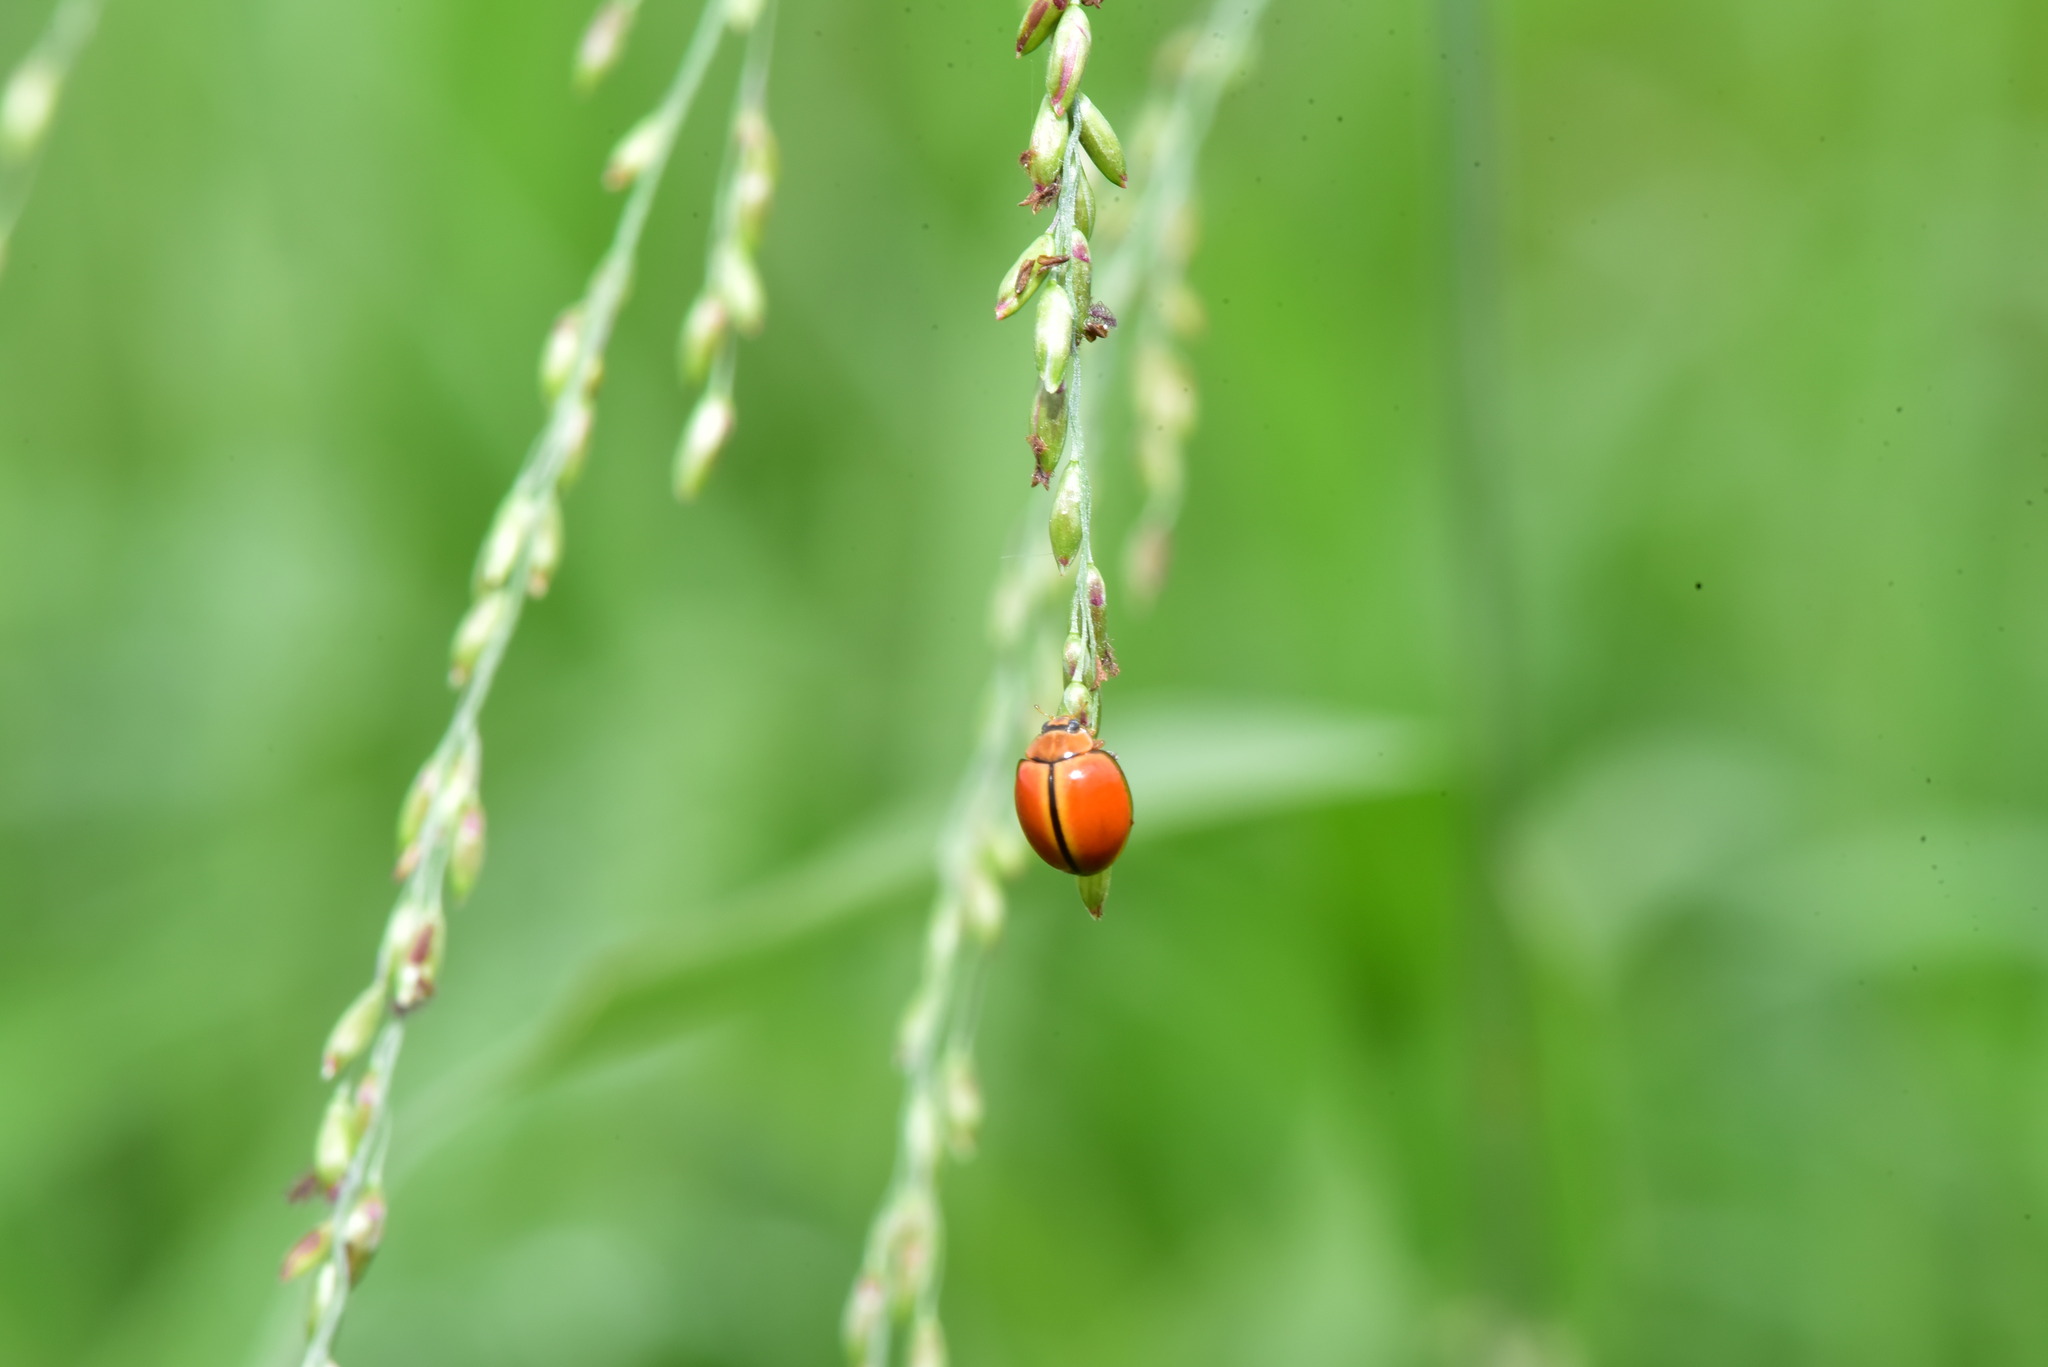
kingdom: Animalia
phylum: Arthropoda
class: Insecta
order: Coleoptera
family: Coccinellidae
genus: Micraspis
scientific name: Micraspis discolor
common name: Lady beetle
